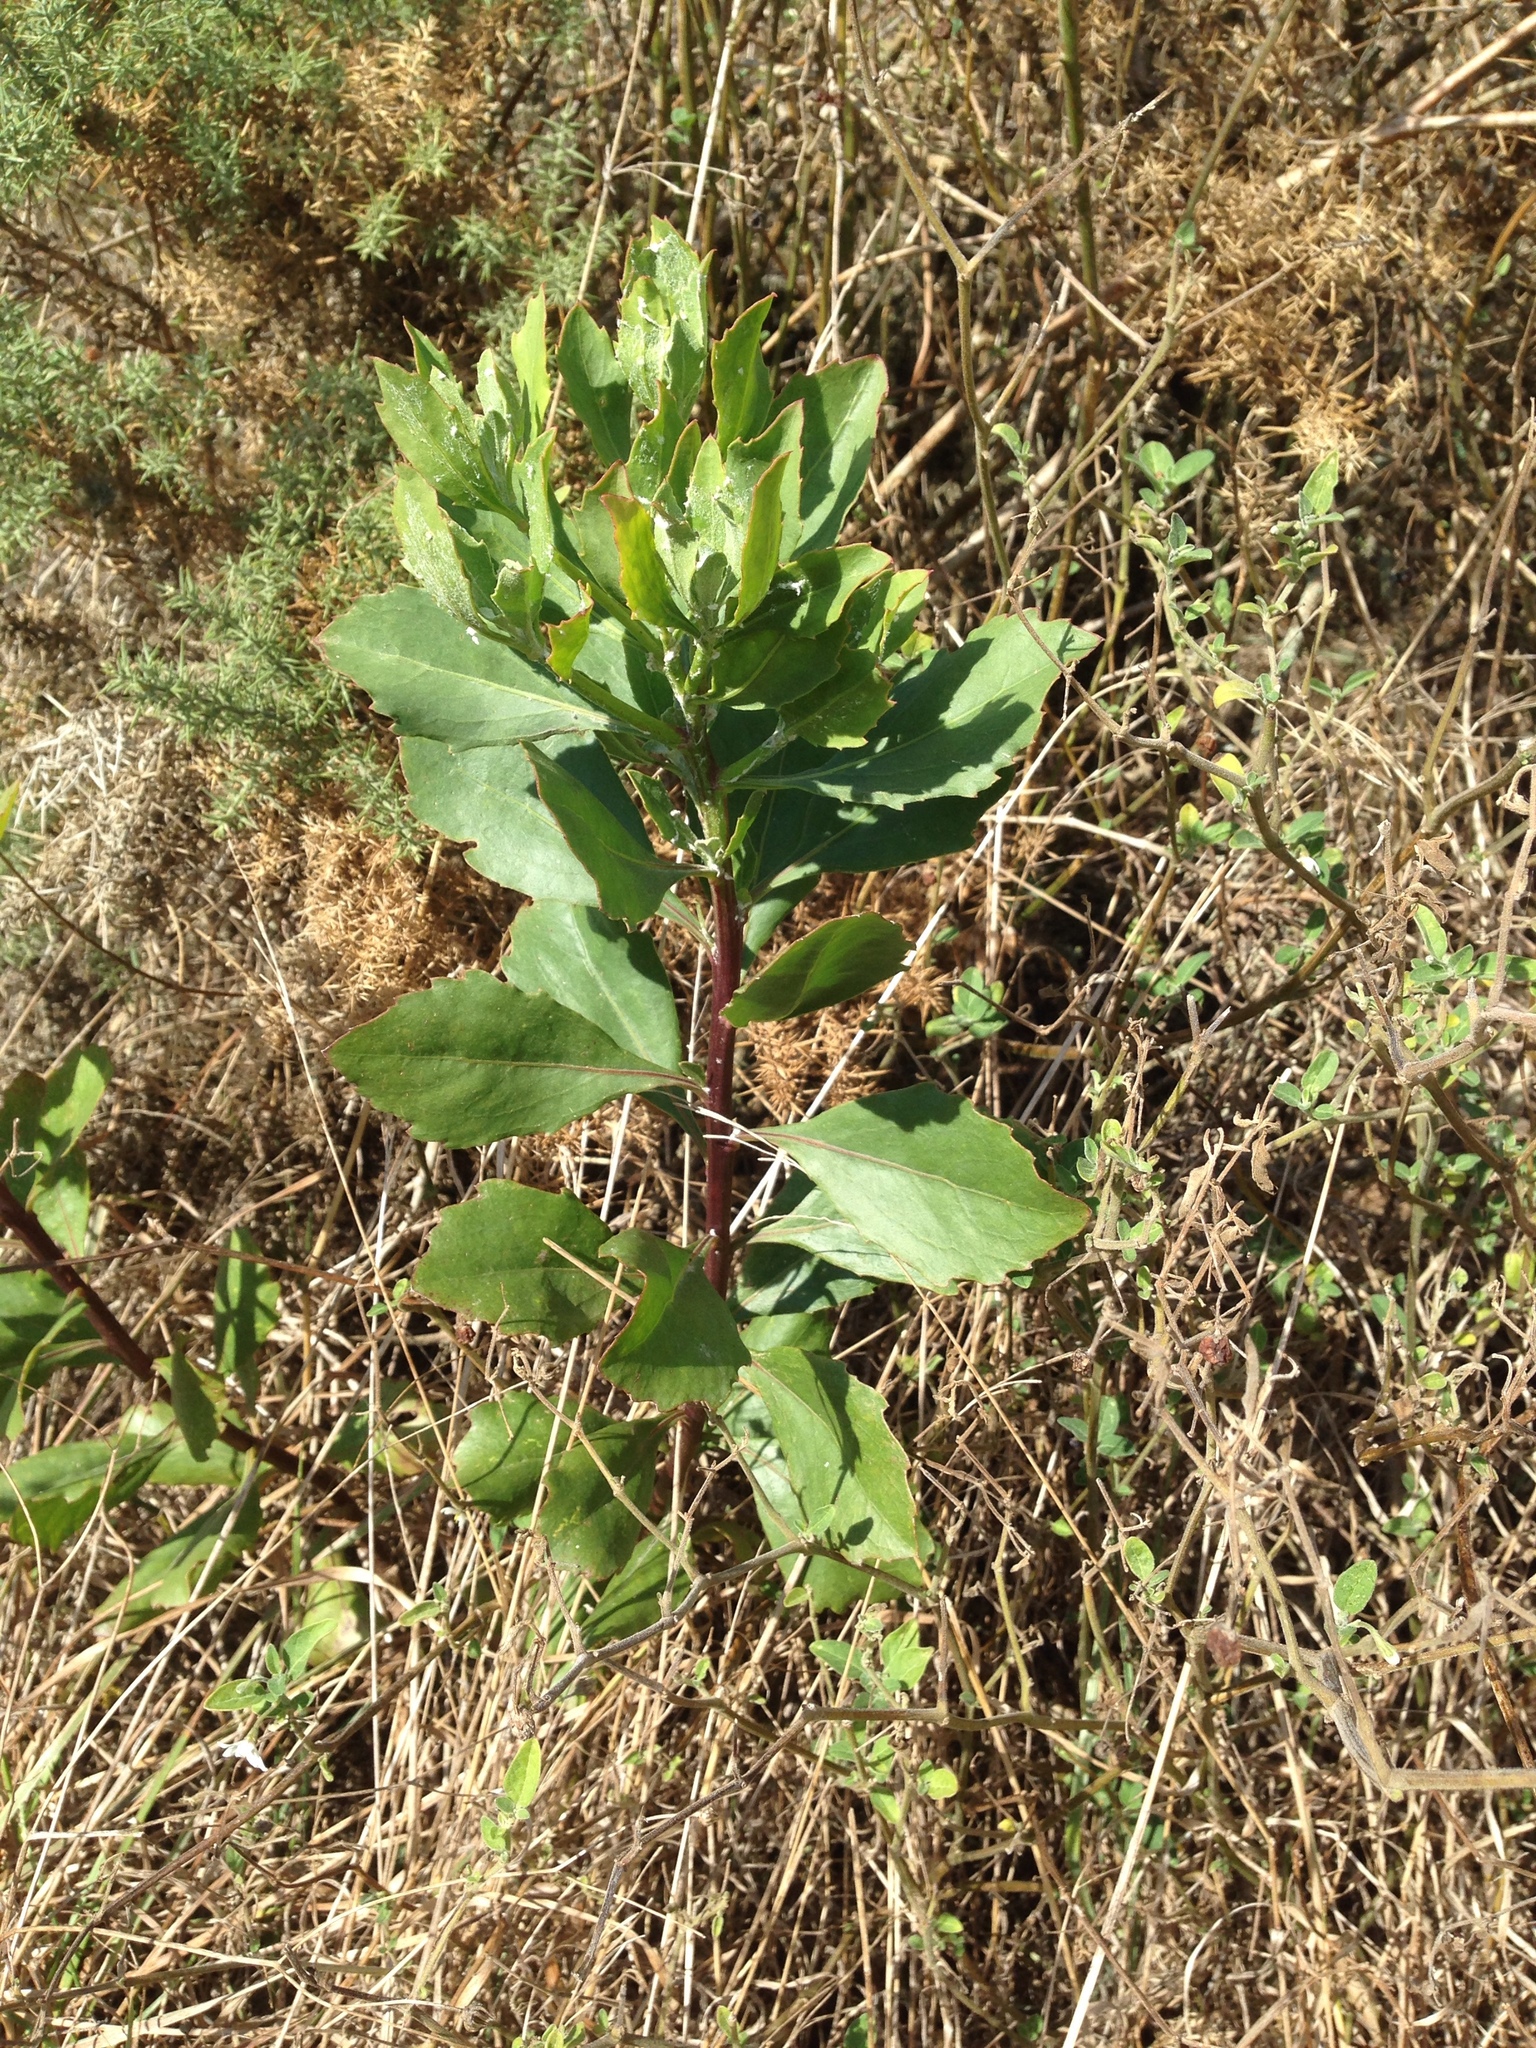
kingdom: Plantae
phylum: Tracheophyta
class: Magnoliopsida
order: Asterales
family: Asteraceae
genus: Osteospermum
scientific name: Osteospermum moniliferum
